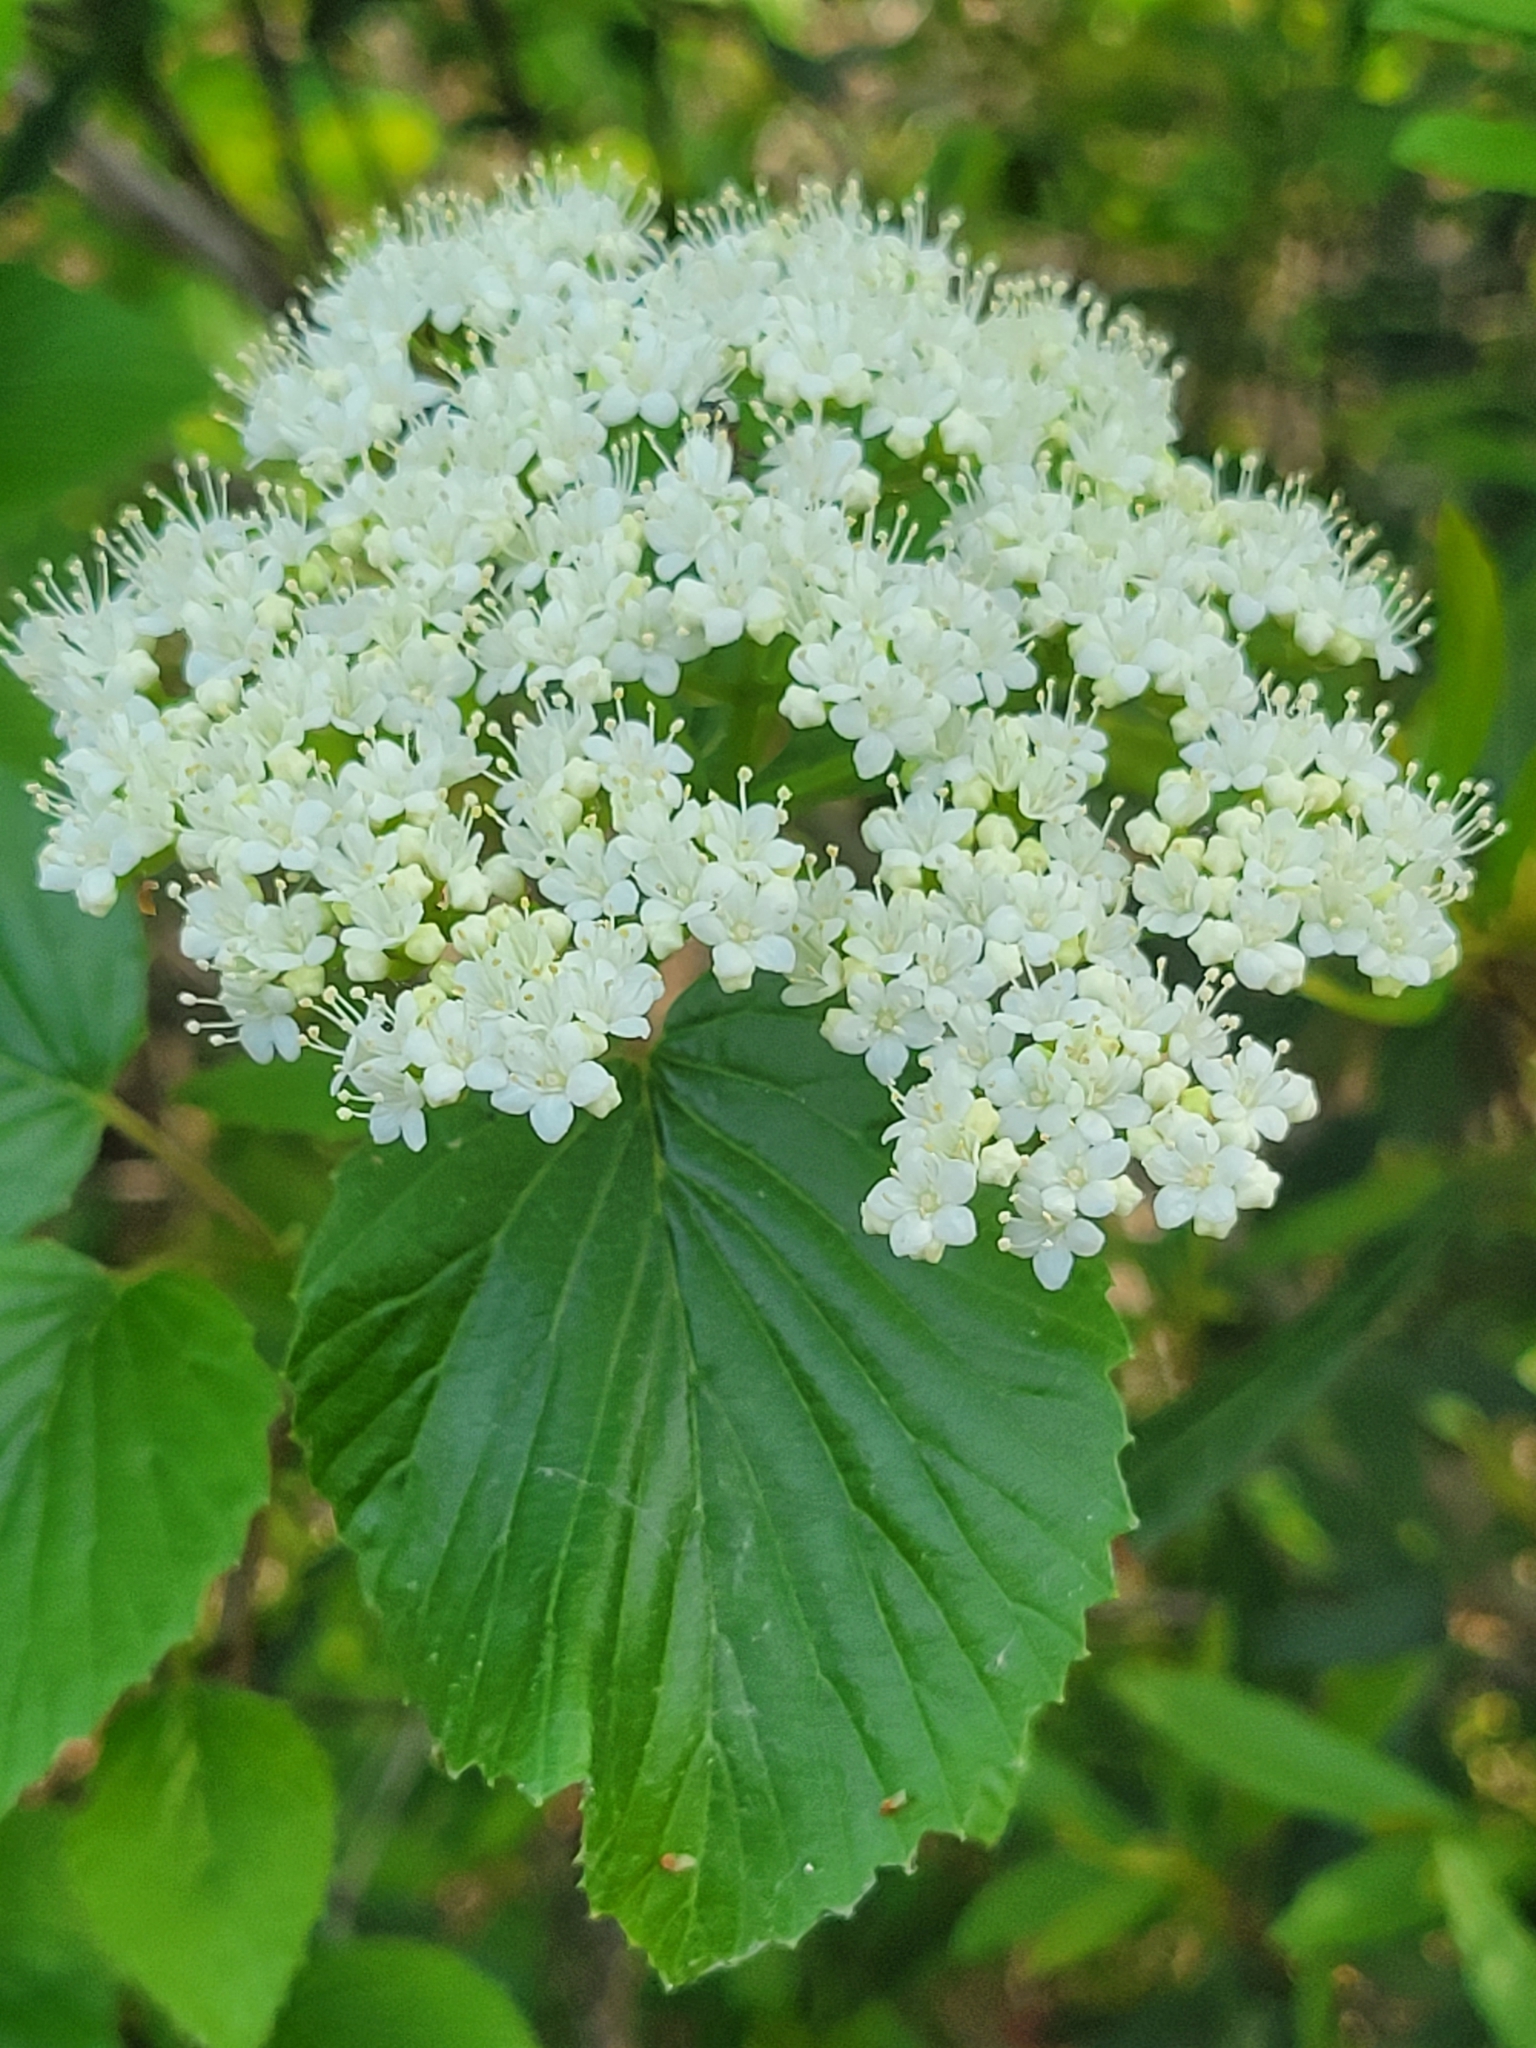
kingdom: Plantae
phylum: Tracheophyta
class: Magnoliopsida
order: Dipsacales
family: Viburnaceae
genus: Viburnum
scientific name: Viburnum recognitum
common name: Northern arrow-wood
